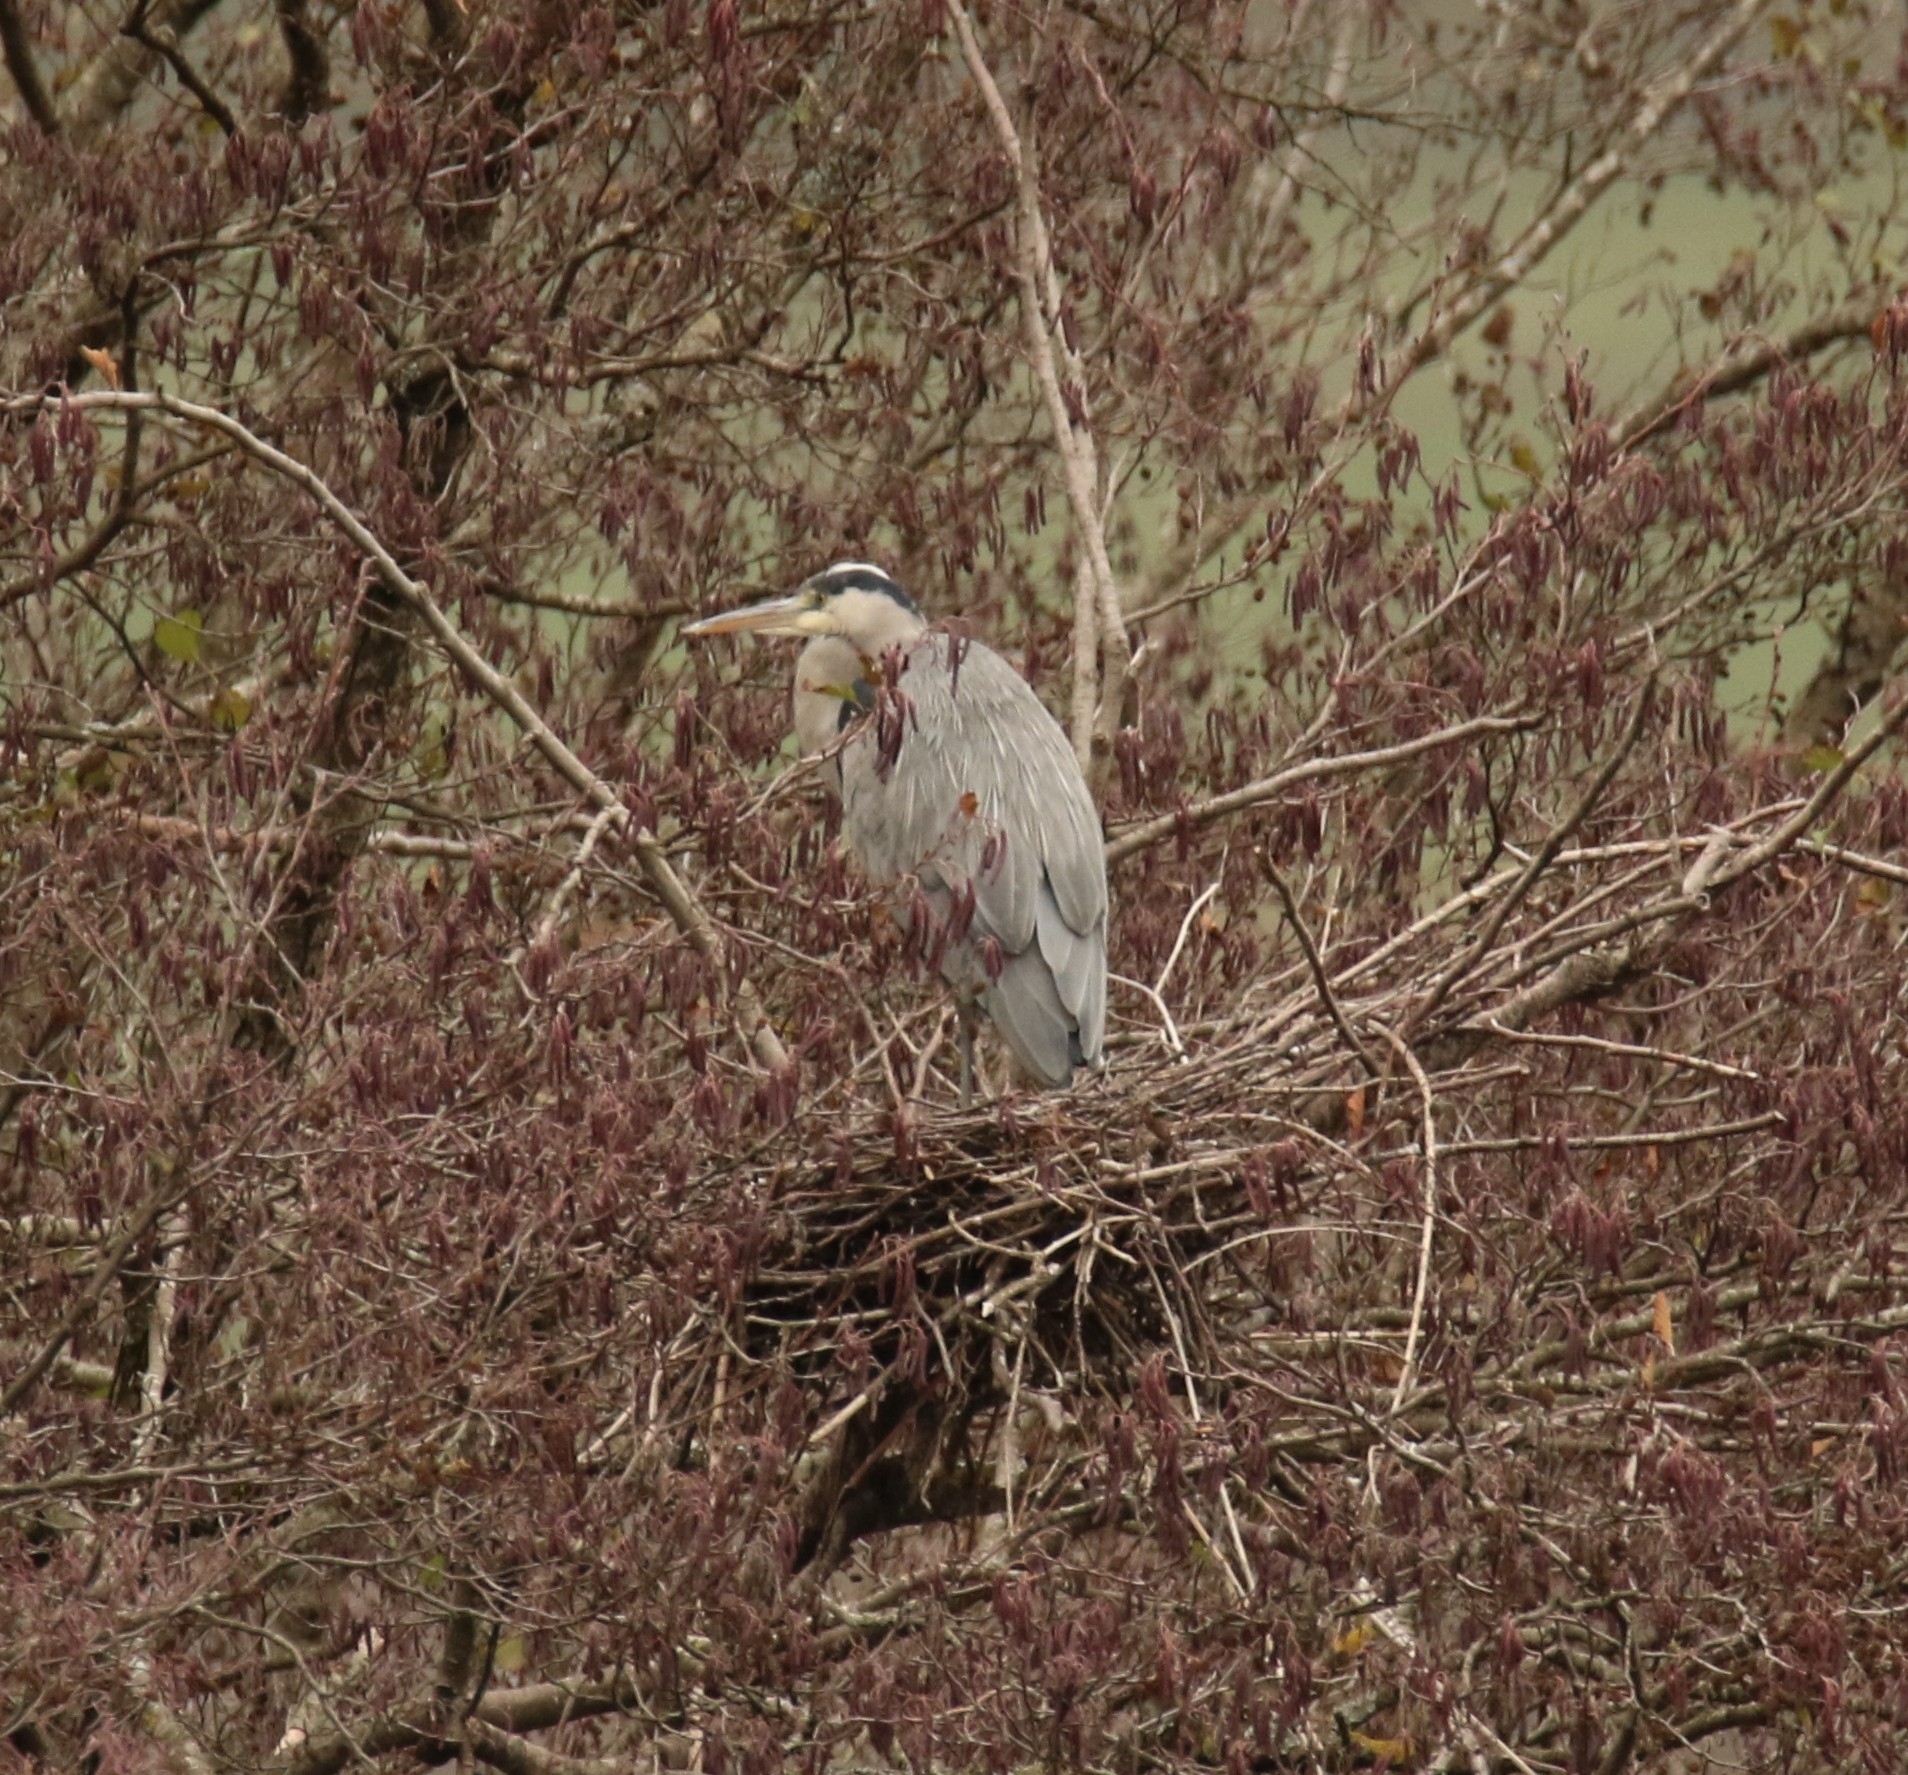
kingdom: Animalia
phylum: Chordata
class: Aves
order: Pelecaniformes
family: Ardeidae
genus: Ardea
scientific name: Ardea cinerea
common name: Grey heron
